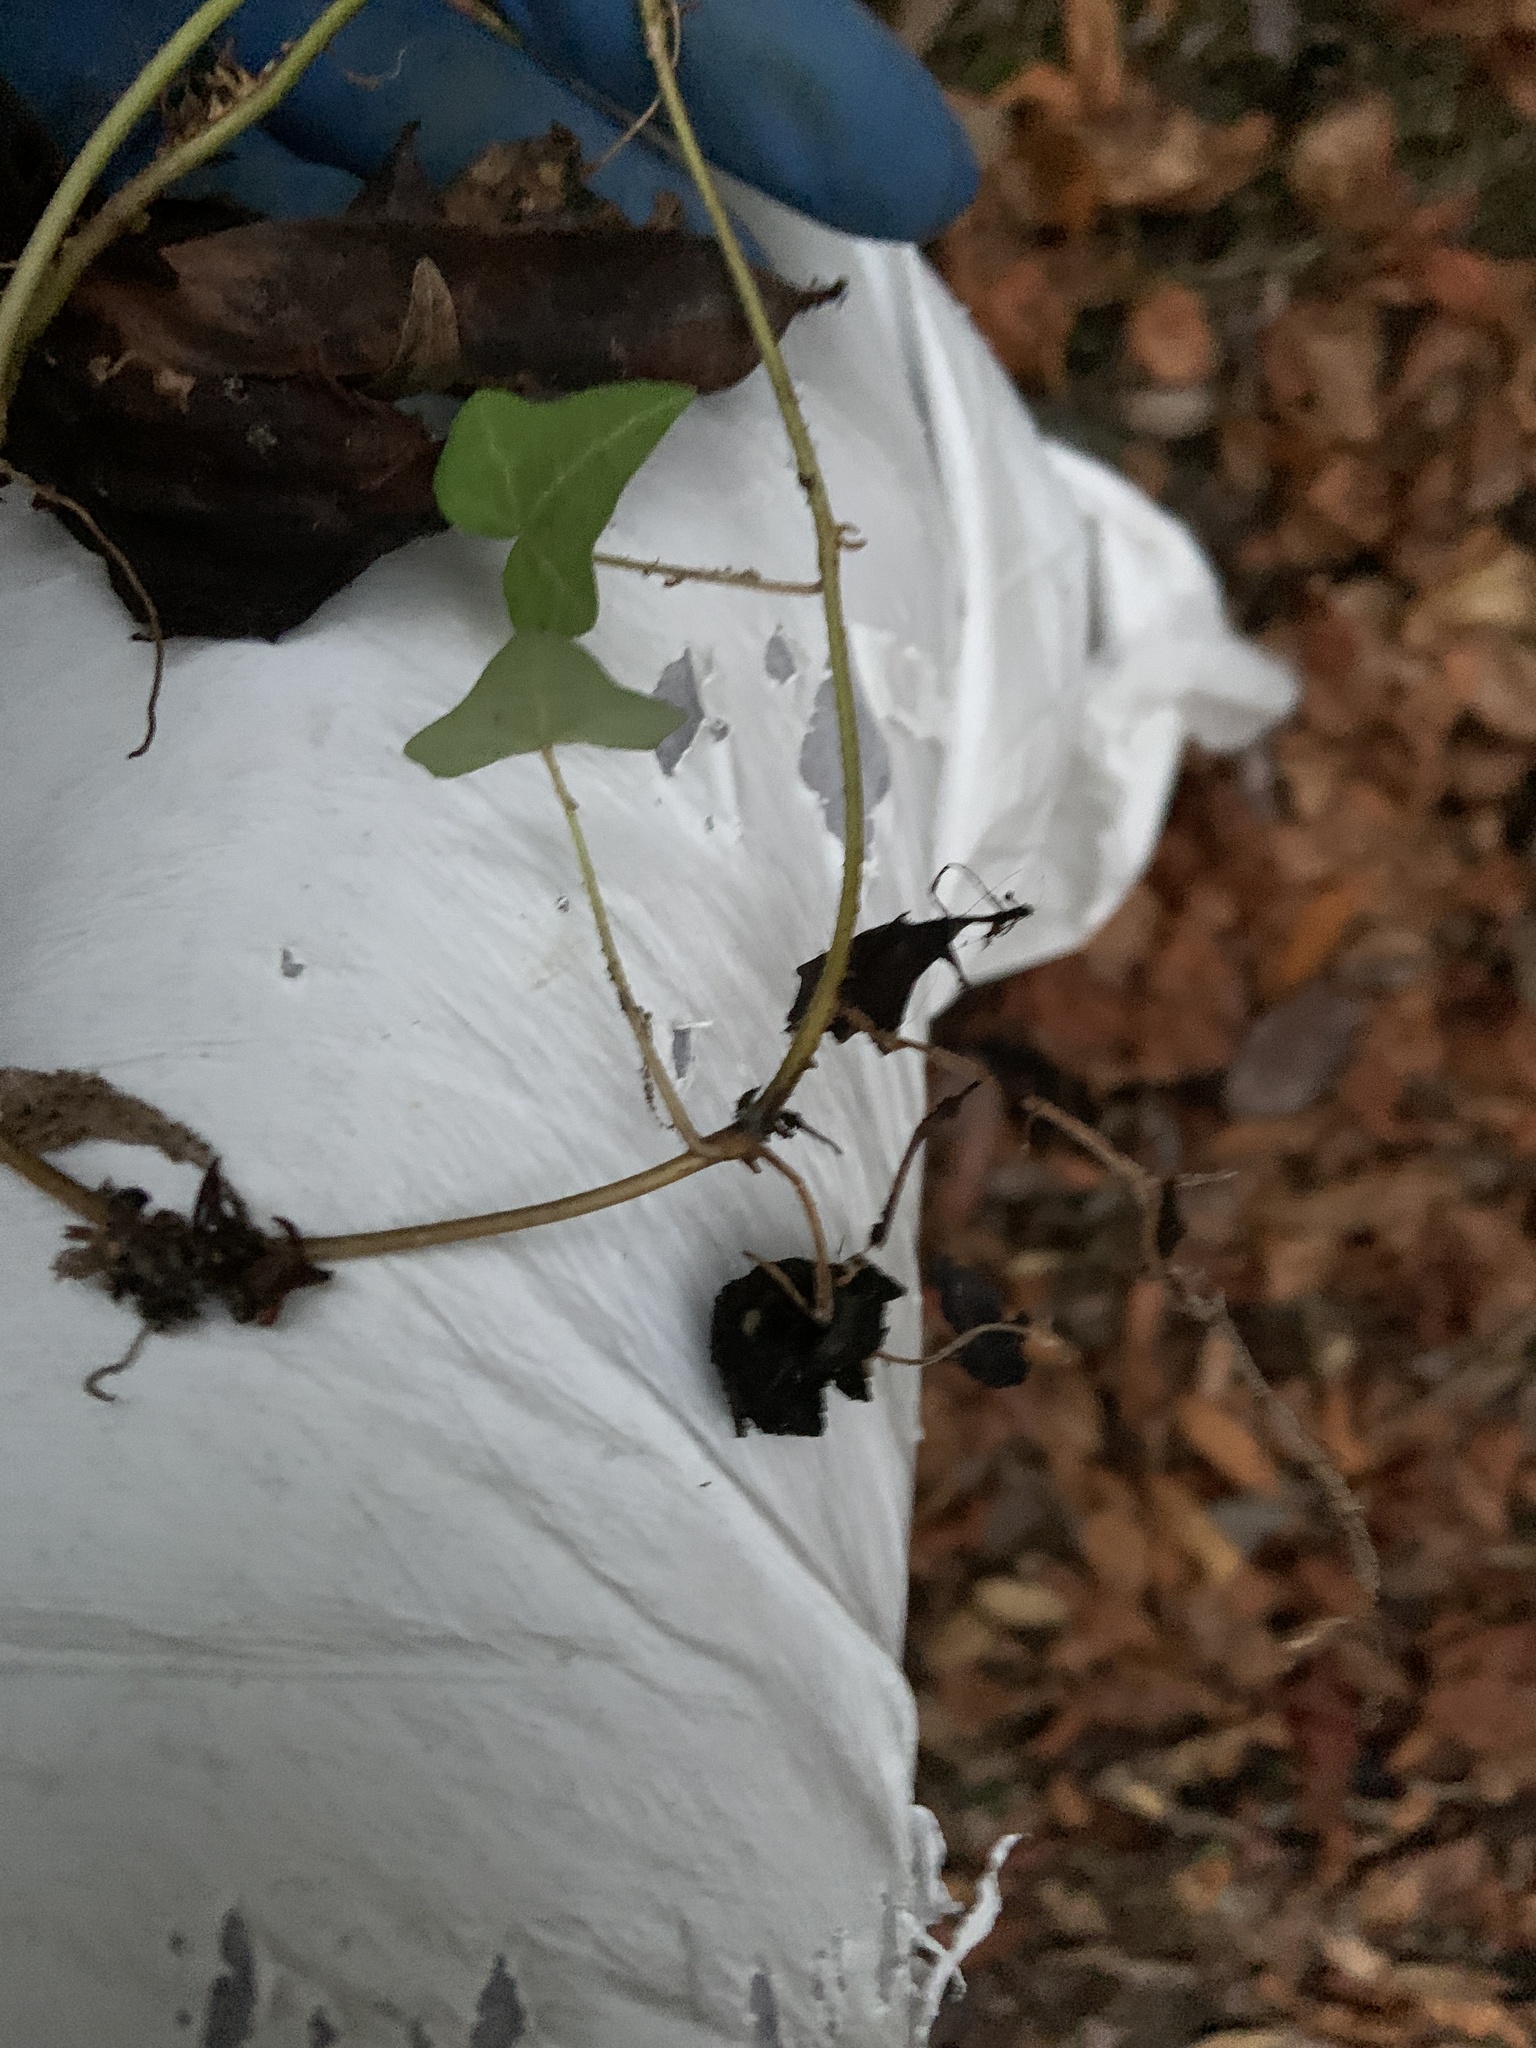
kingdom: Plantae
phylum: Tracheophyta
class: Magnoliopsida
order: Apiales
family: Araliaceae
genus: Hedera
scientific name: Hedera helix
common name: Ivy
